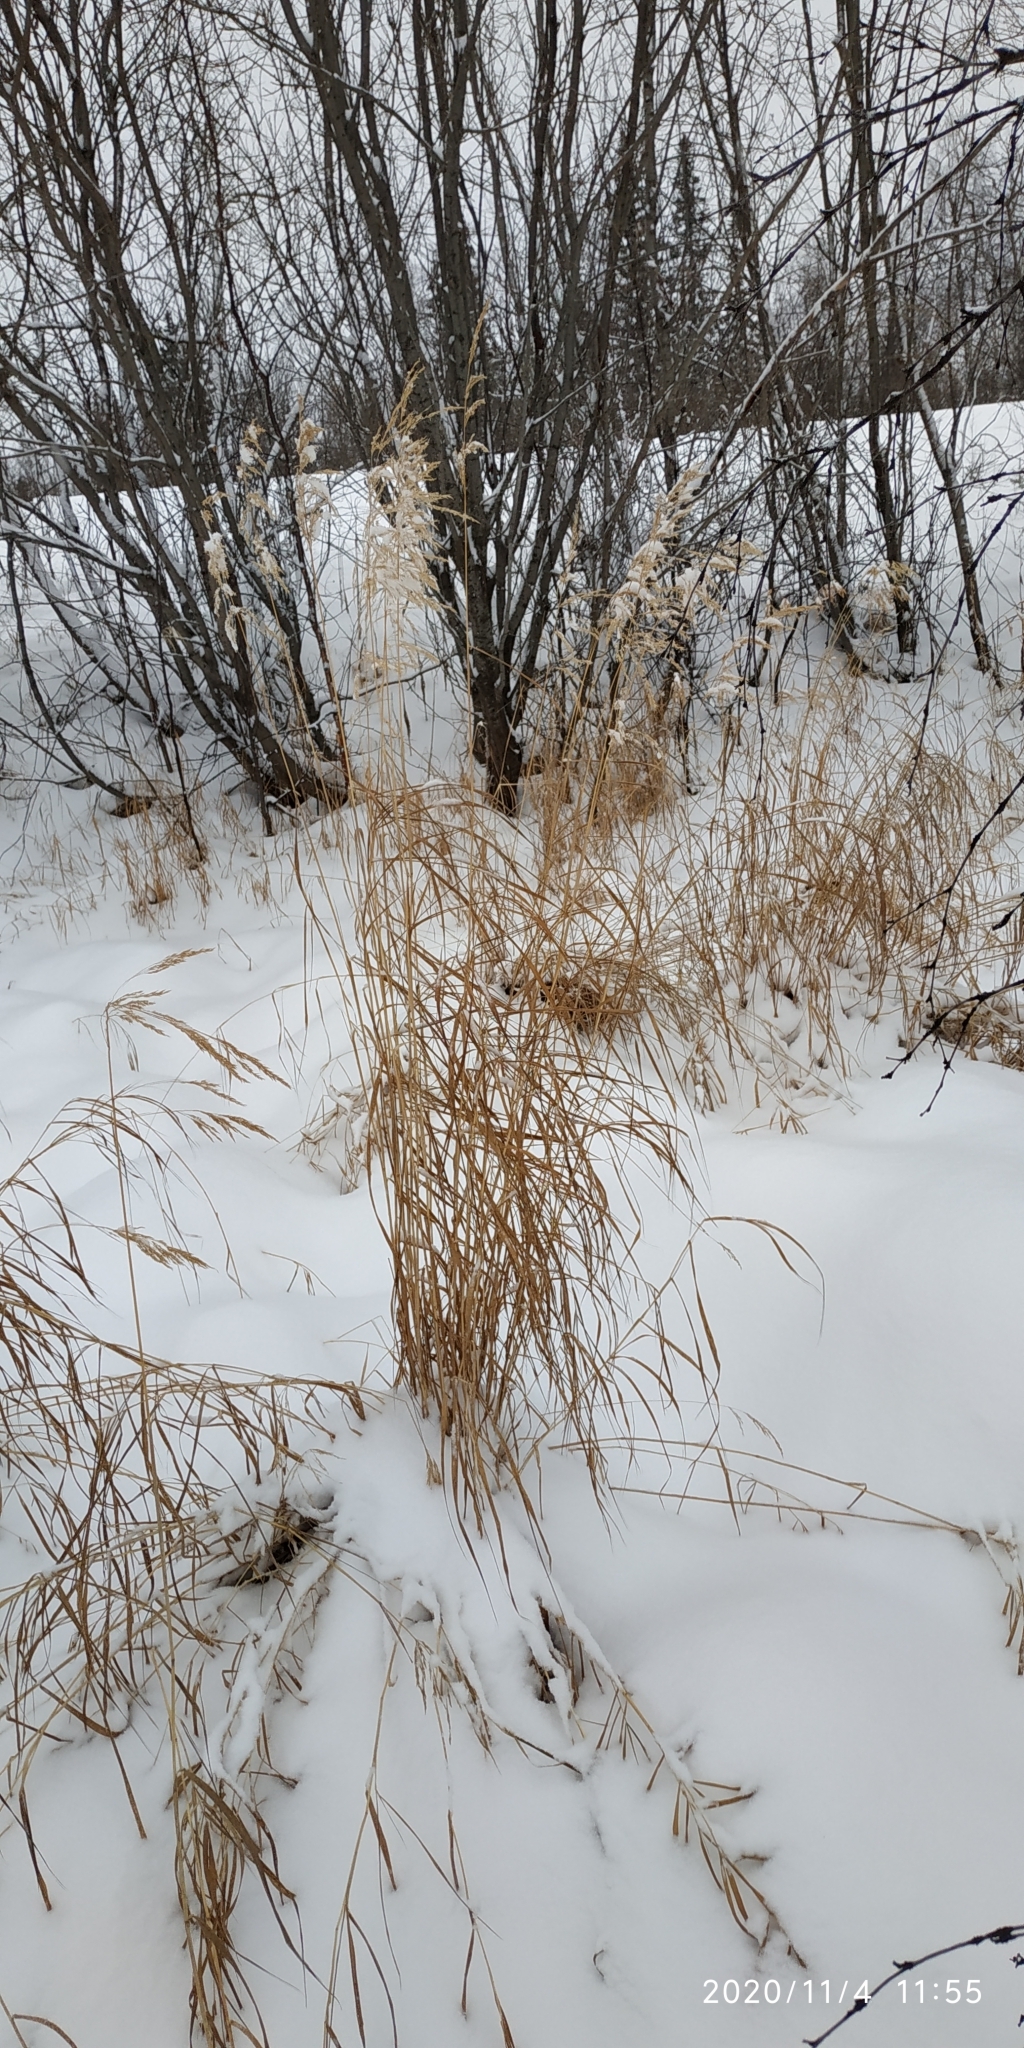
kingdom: Plantae
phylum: Tracheophyta
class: Liliopsida
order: Poales
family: Poaceae
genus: Calamagrostis
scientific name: Calamagrostis purpurea
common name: Scandinavian small-reed
